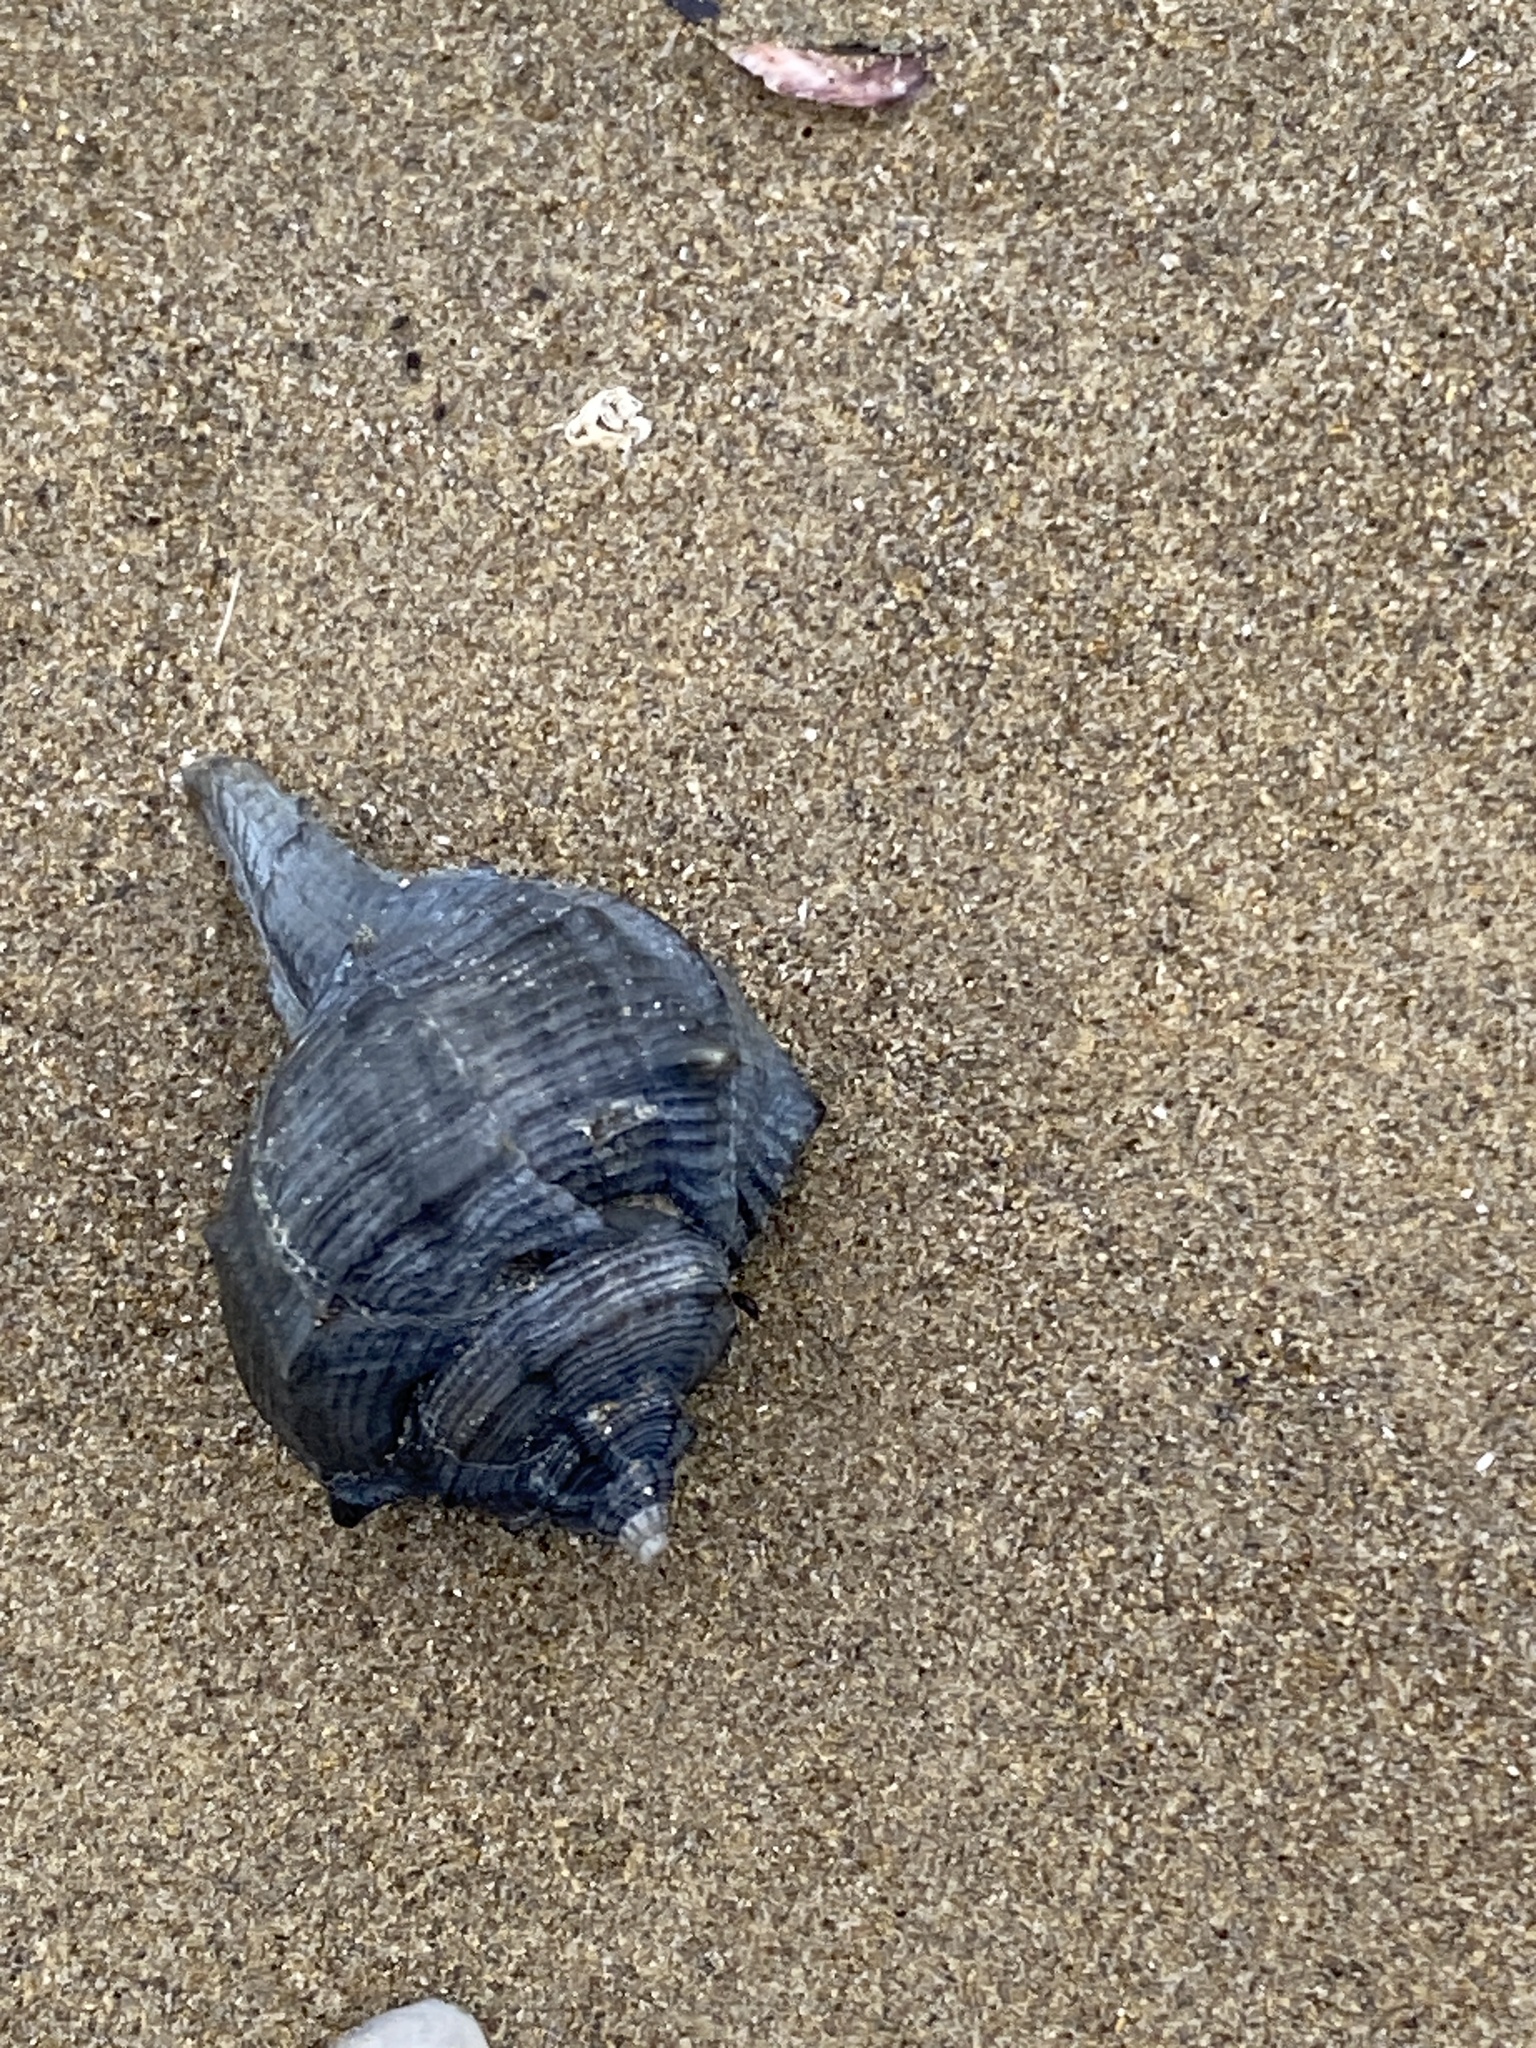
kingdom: Animalia
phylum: Mollusca
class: Gastropoda
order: Neogastropoda
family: Muricidae
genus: Bolinus
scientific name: Bolinus brandaris
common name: Dye murex
